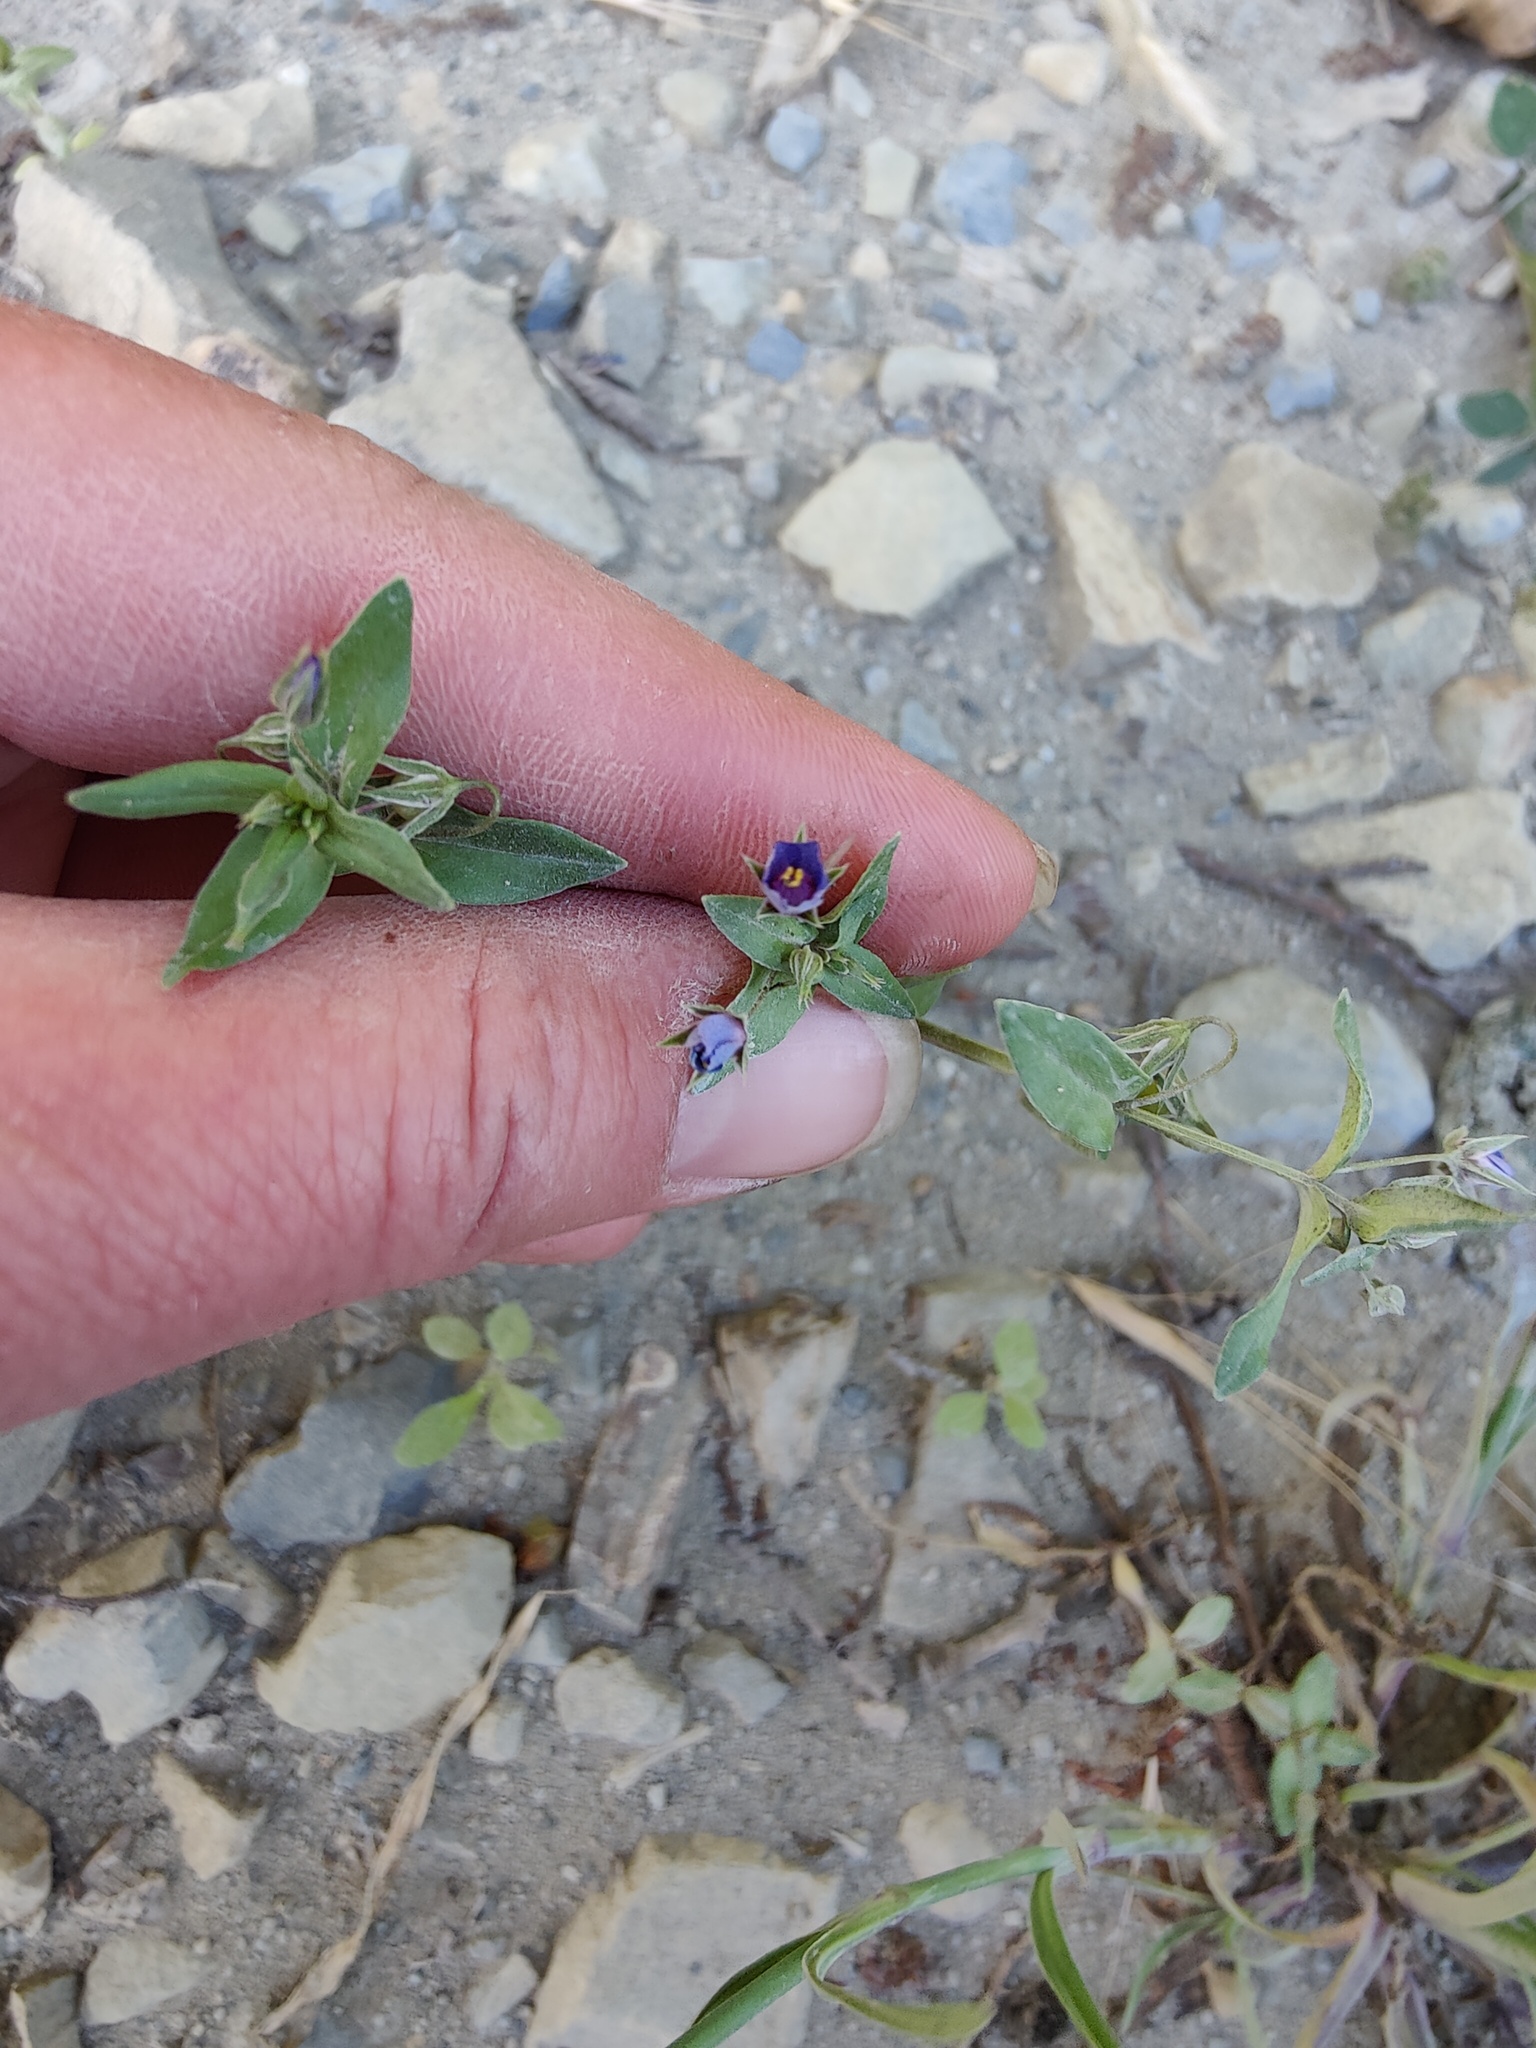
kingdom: Plantae
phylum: Tracheophyta
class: Magnoliopsida
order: Ericales
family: Primulaceae
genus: Lysimachia
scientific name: Lysimachia foemina
